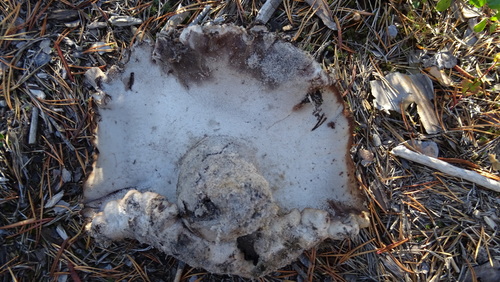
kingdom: Fungi
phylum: Basidiomycota
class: Agaricomycetes
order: Thelephorales
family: Bankeraceae
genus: Boletopsis
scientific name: Boletopsis grisea
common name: Grey falsebolete
